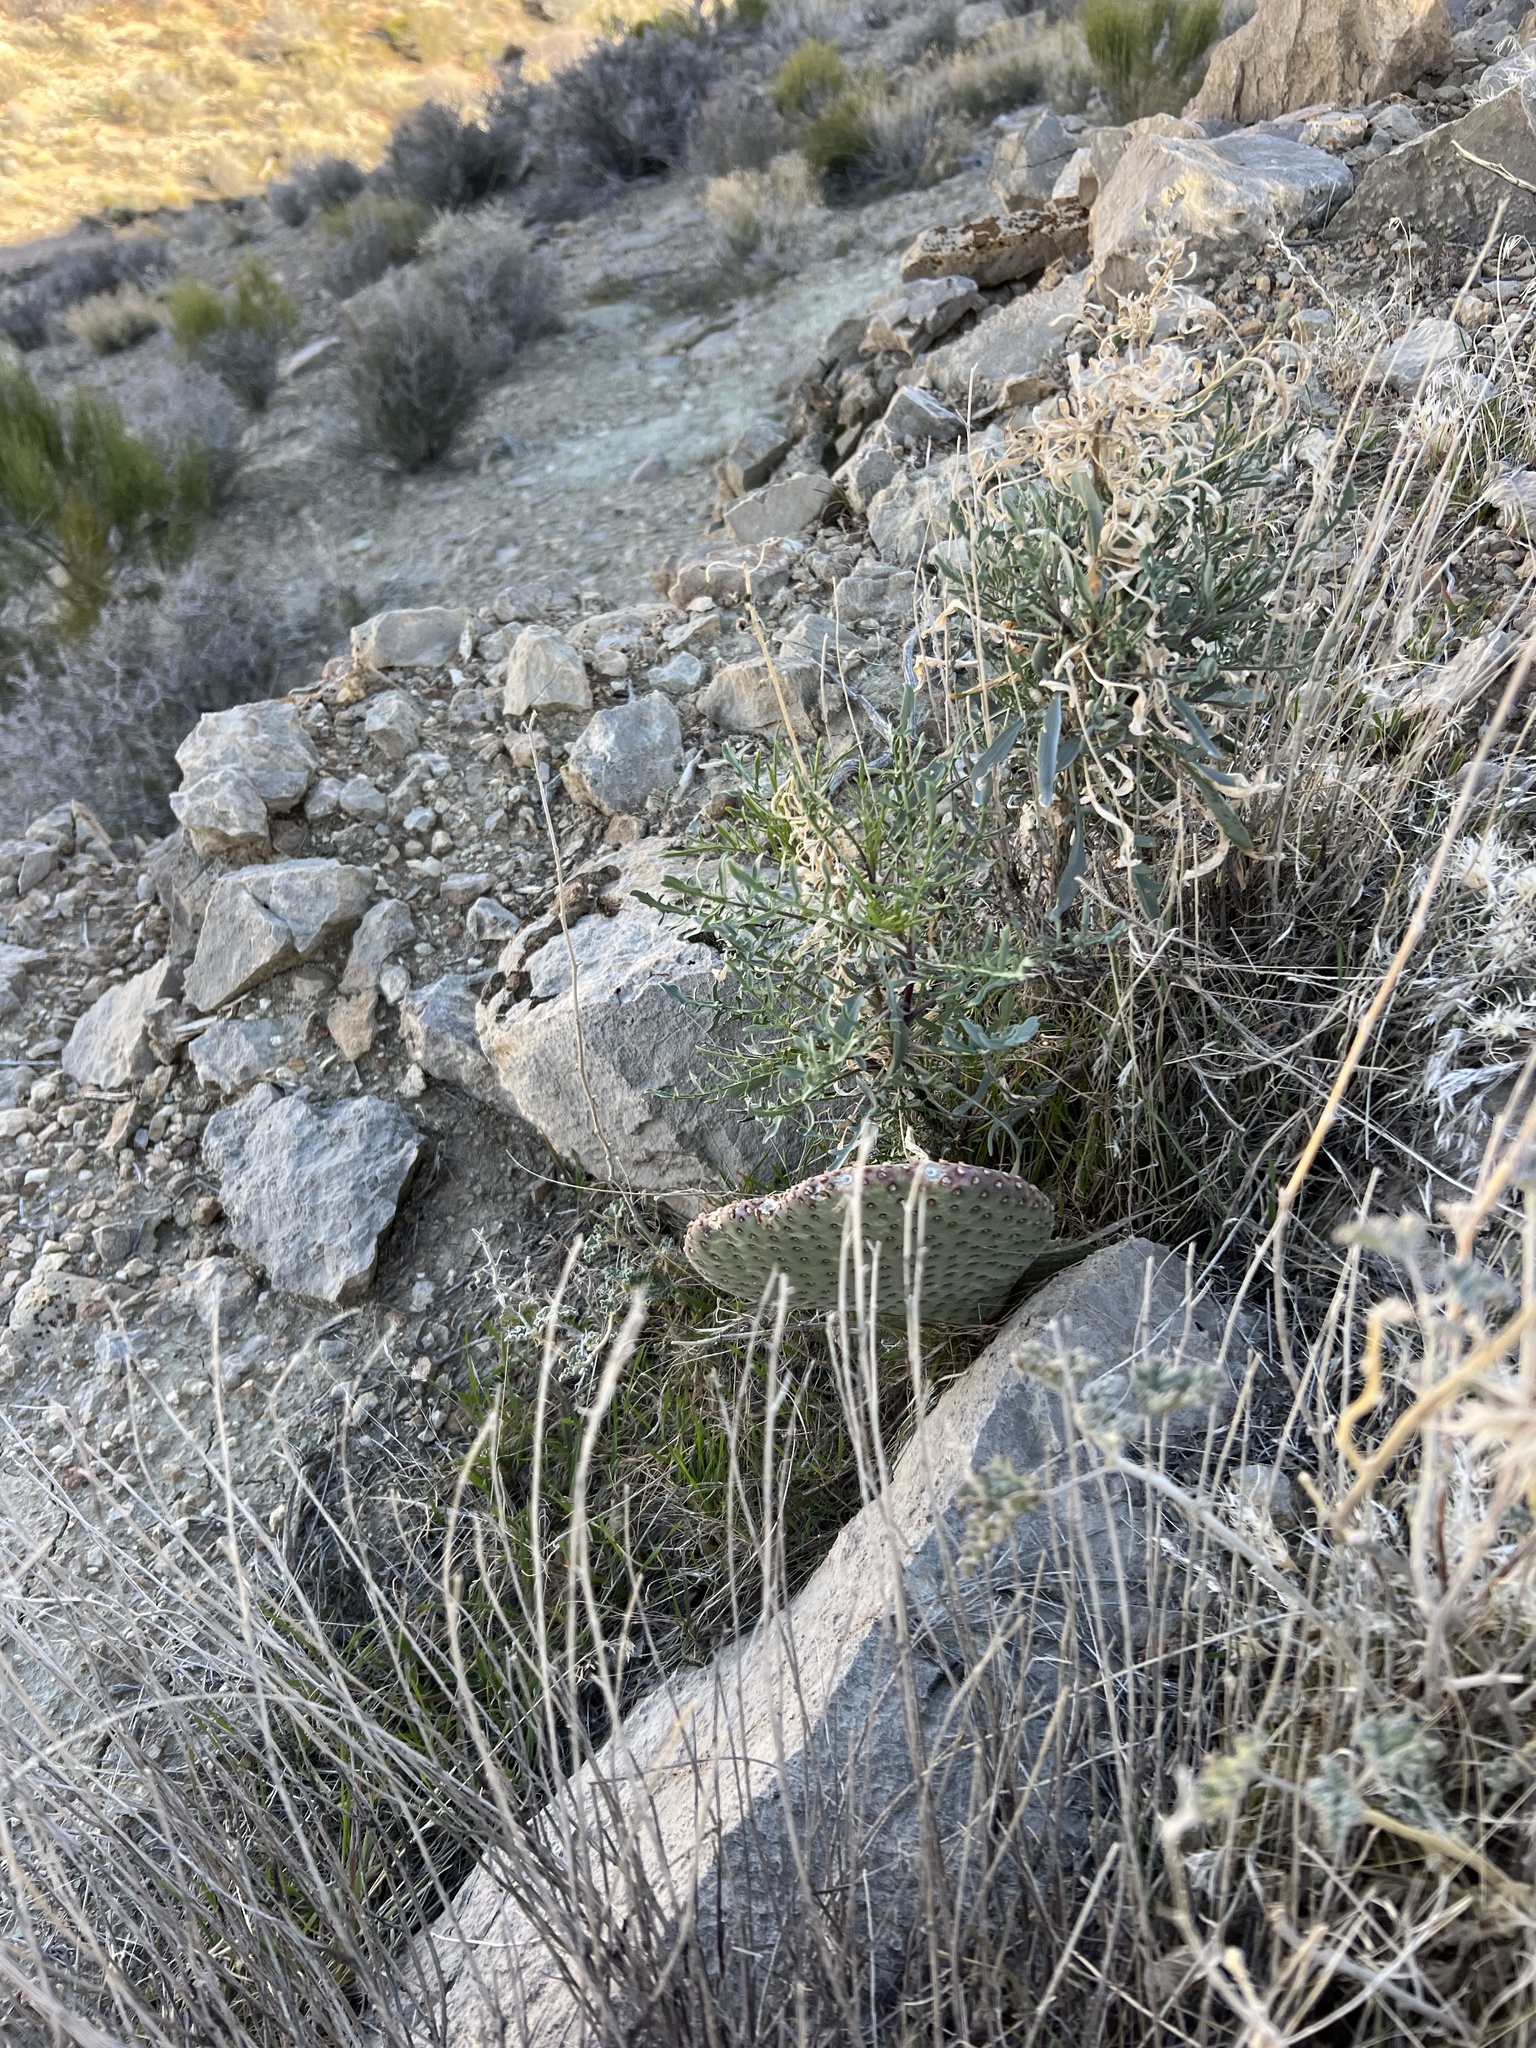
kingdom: Plantae
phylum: Tracheophyta
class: Magnoliopsida
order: Caryophyllales
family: Cactaceae
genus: Opuntia
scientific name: Opuntia basilaris
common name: Beavertail prickly-pear
